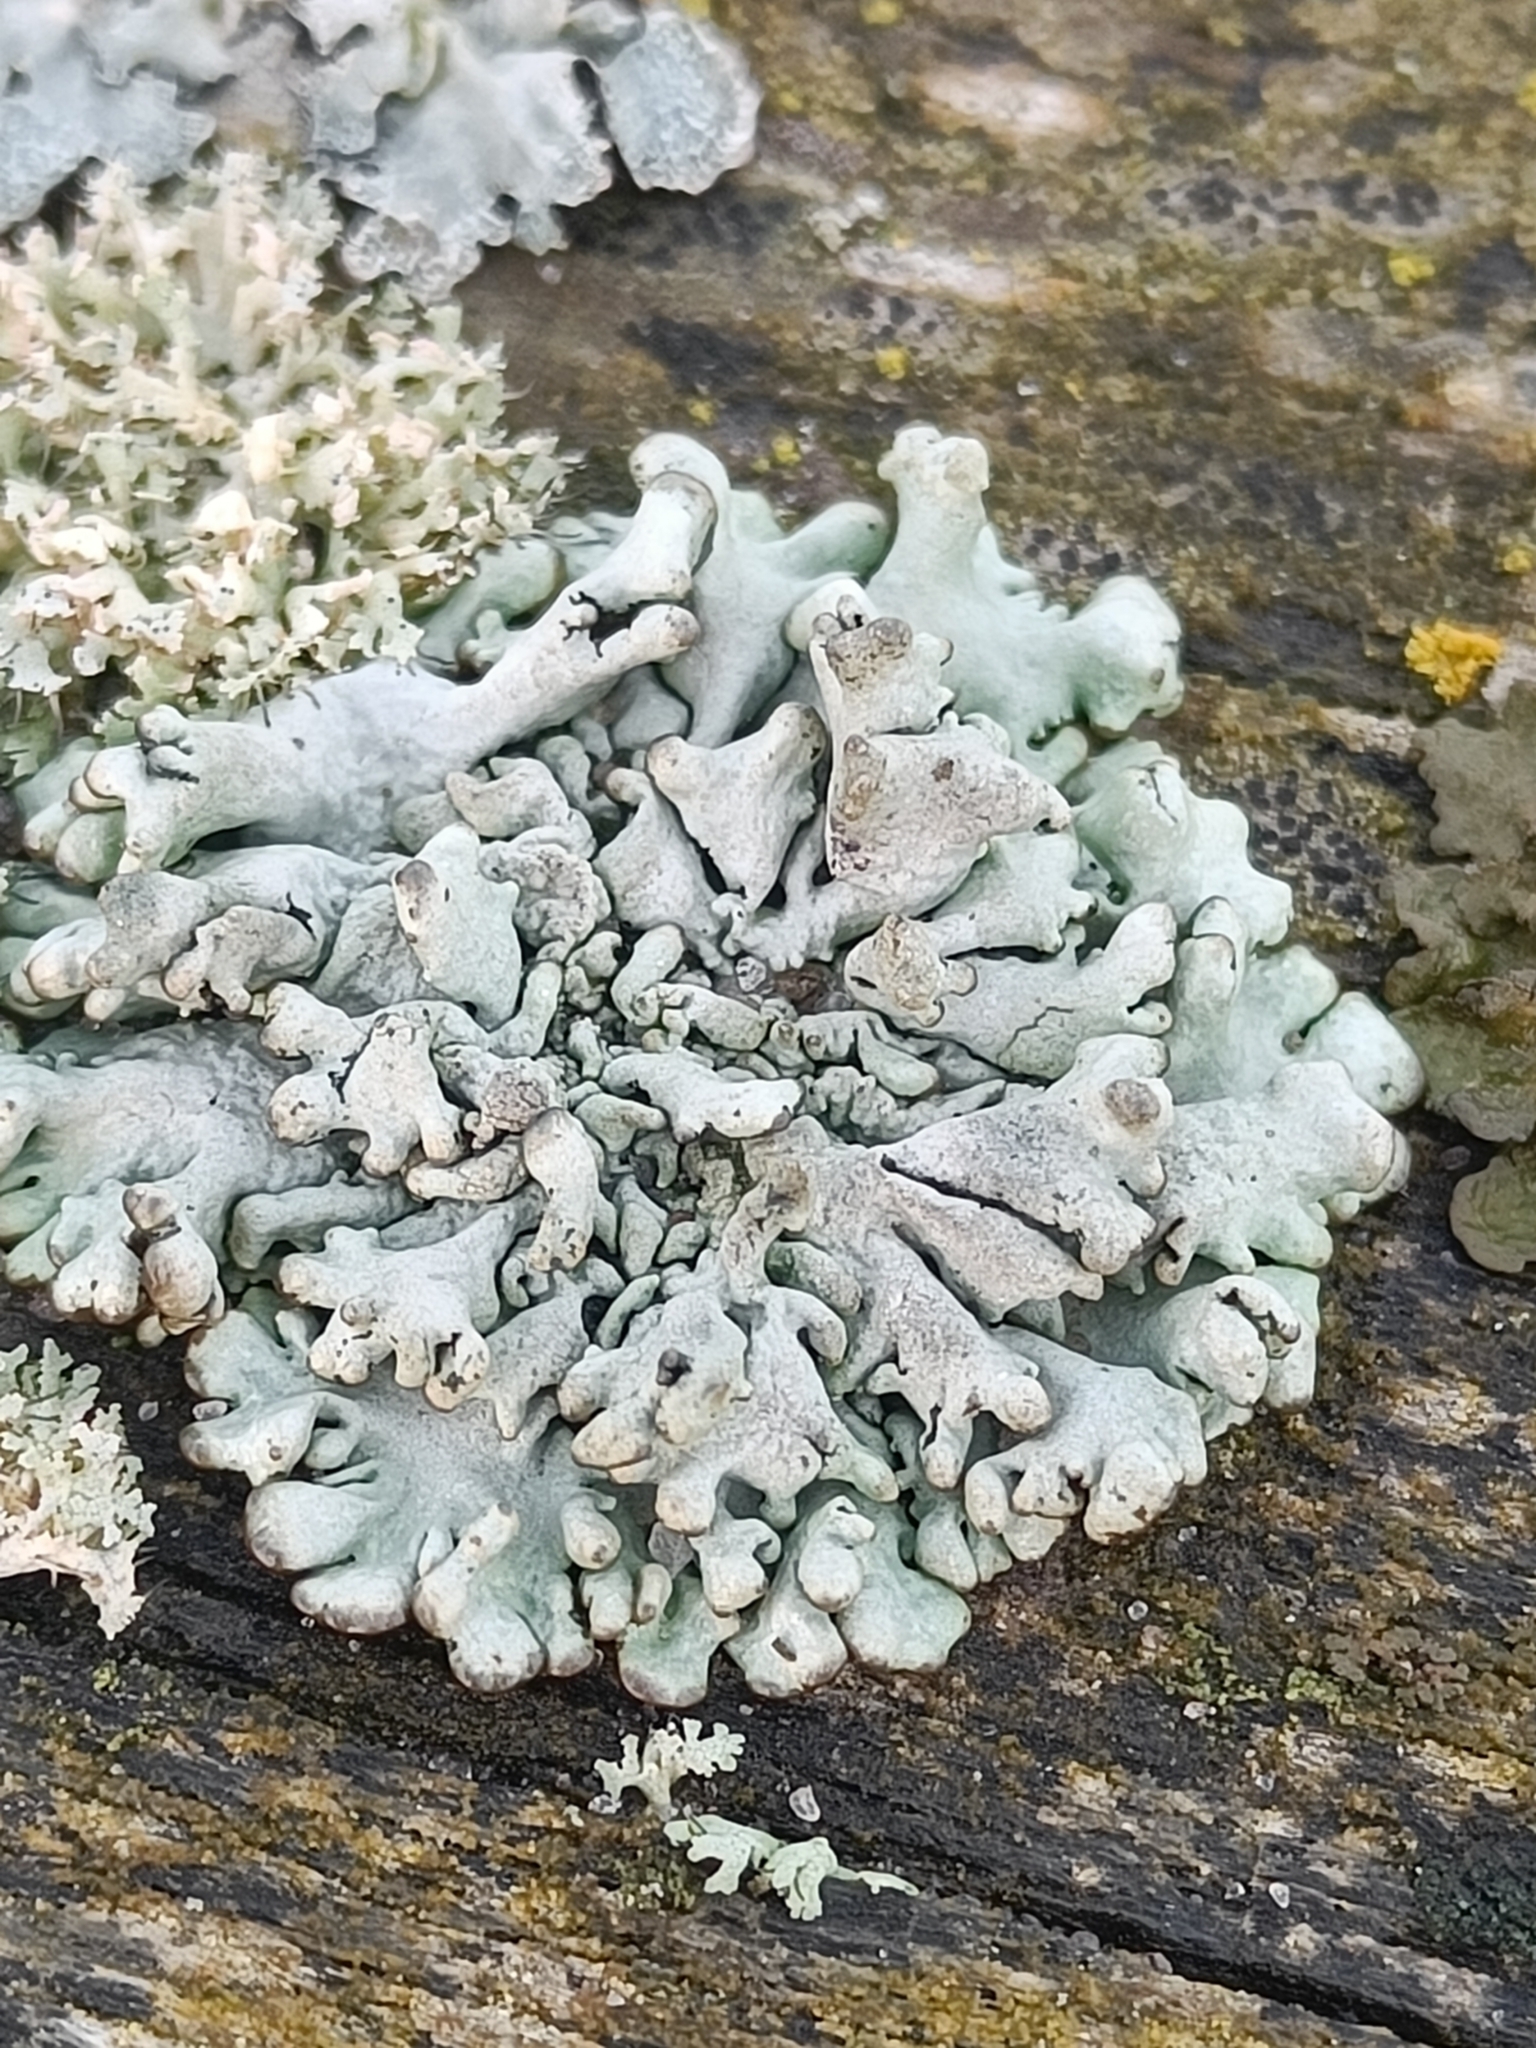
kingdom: Fungi
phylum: Ascomycota
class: Lecanoromycetes
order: Lecanorales
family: Parmeliaceae
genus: Hypogymnia
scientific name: Hypogymnia tubulosa
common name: Powder-headed tube lichen
